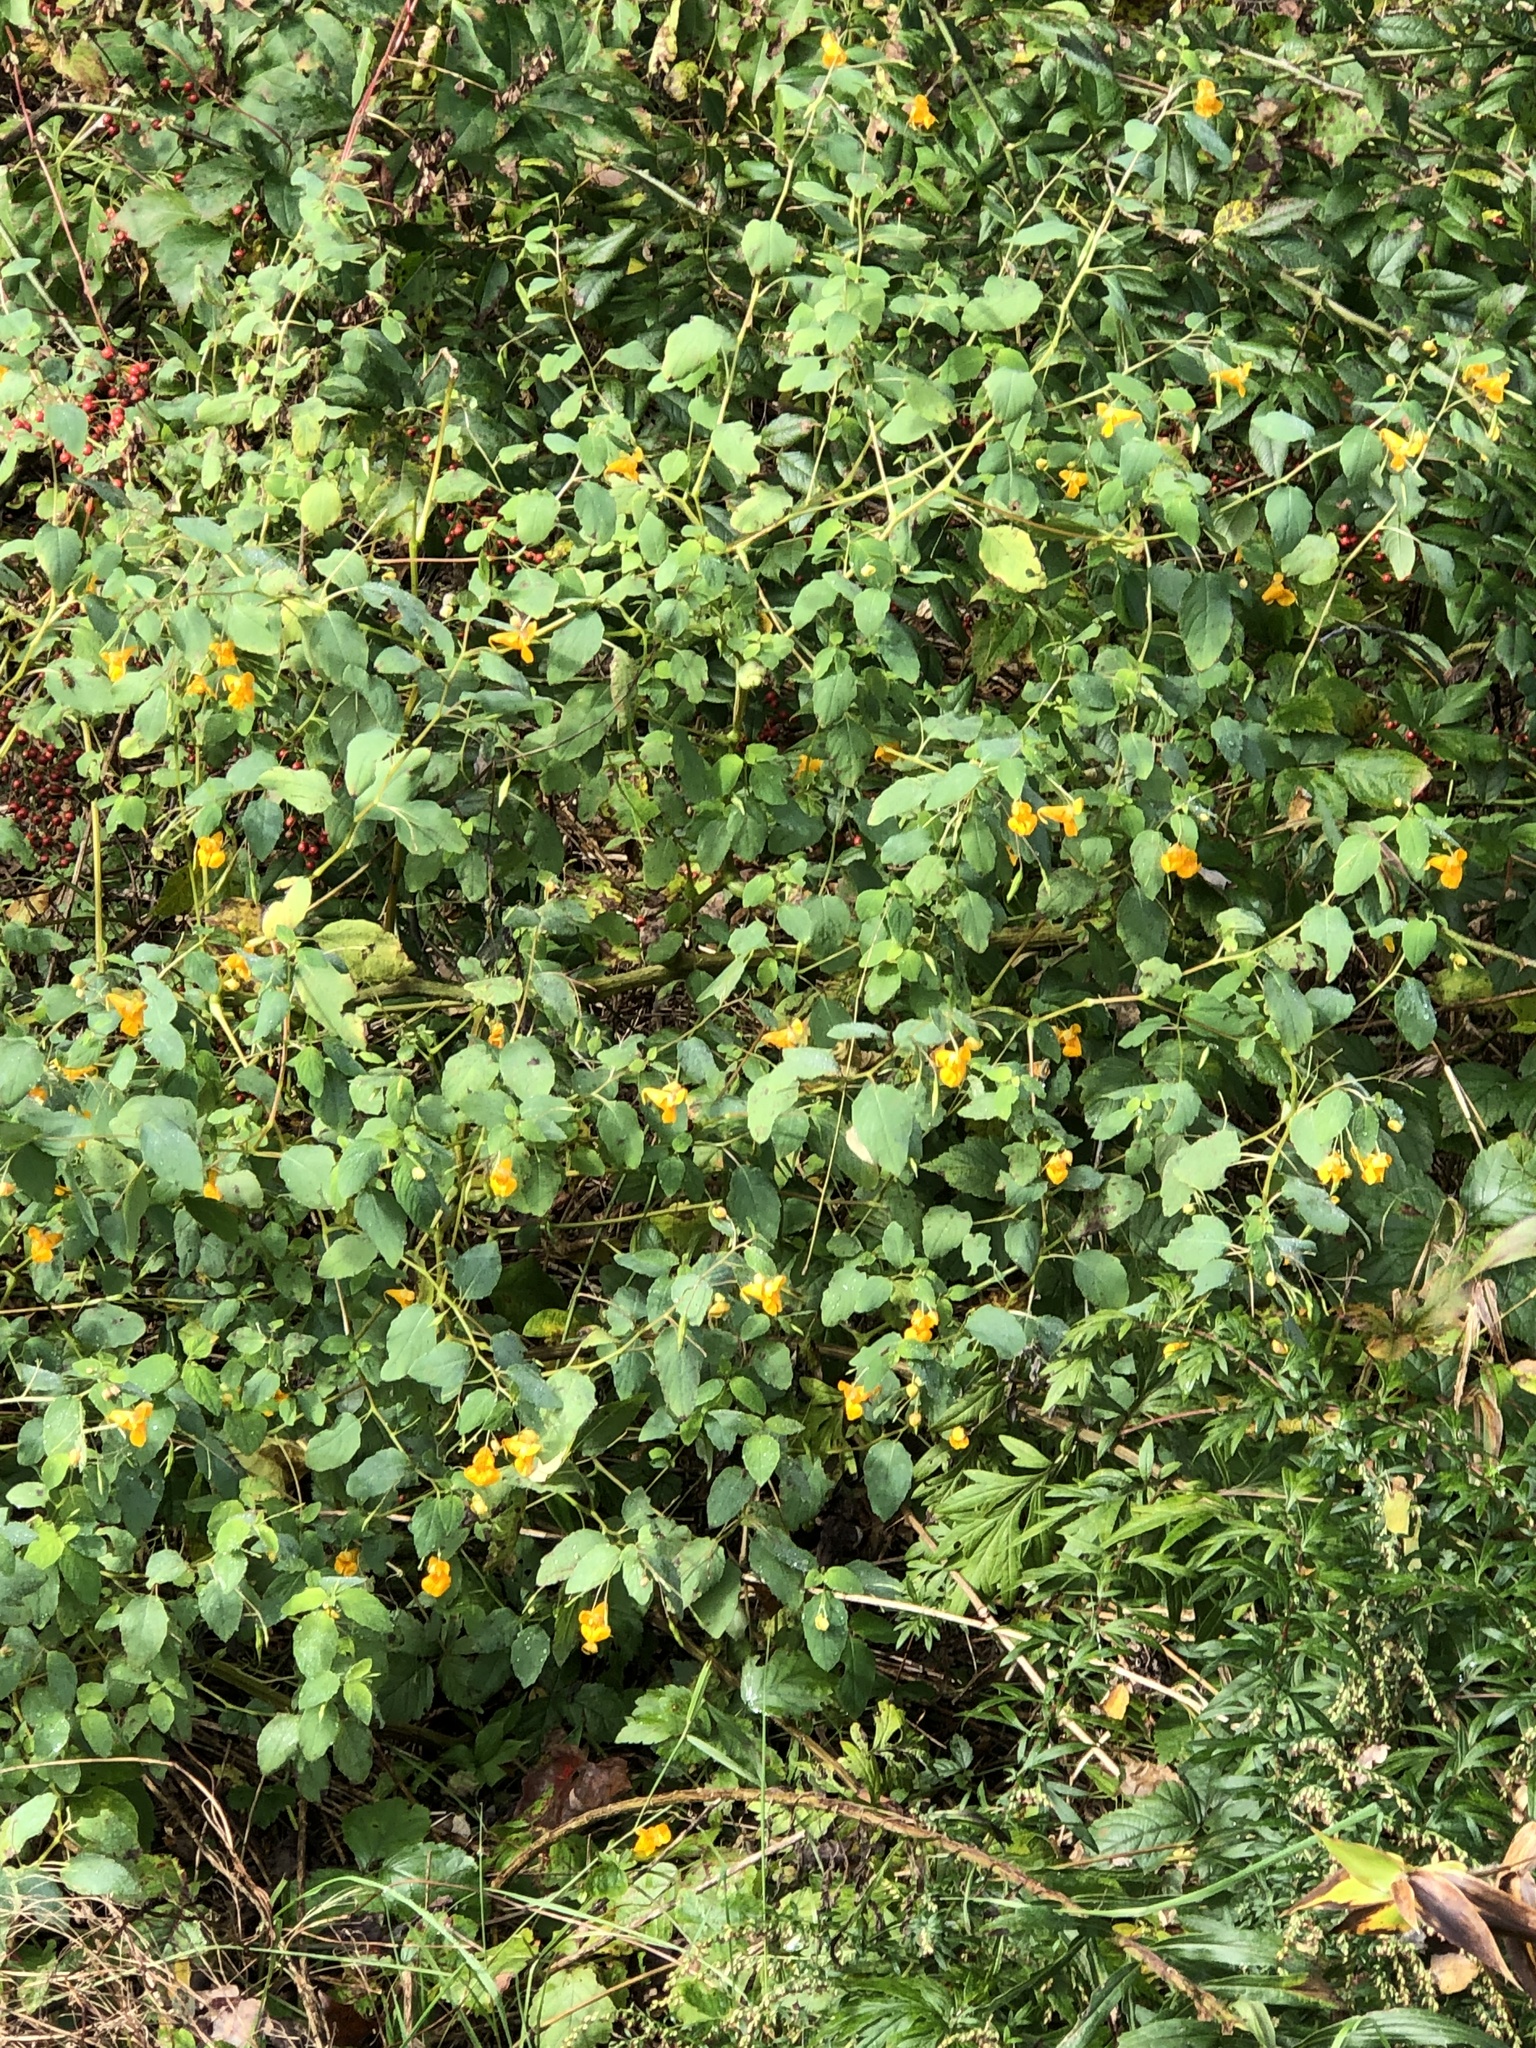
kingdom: Plantae
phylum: Tracheophyta
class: Magnoliopsida
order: Ericales
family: Balsaminaceae
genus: Impatiens
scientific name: Impatiens capensis
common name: Orange balsam
